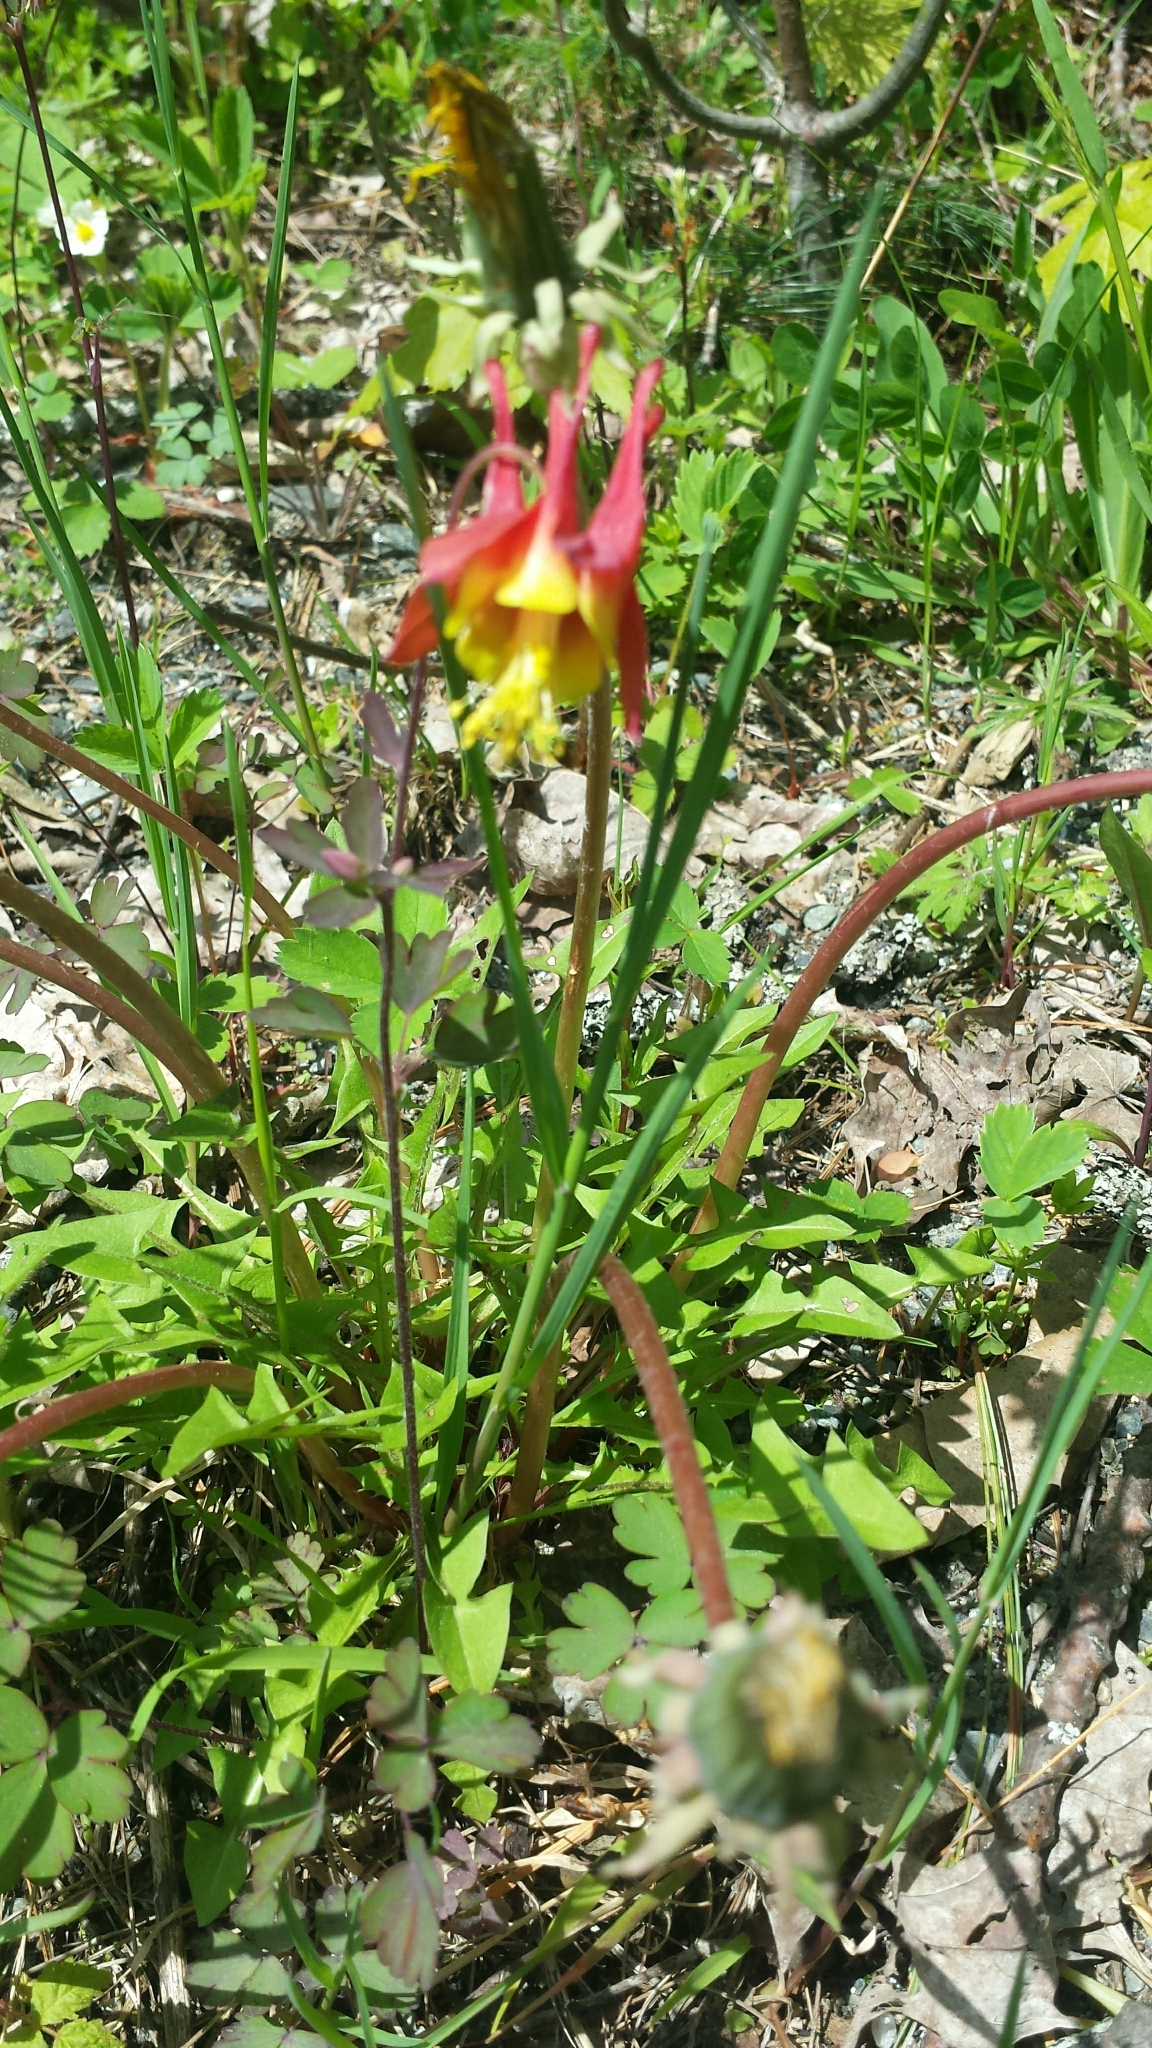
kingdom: Plantae
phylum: Tracheophyta
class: Magnoliopsida
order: Ranunculales
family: Ranunculaceae
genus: Aquilegia
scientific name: Aquilegia canadensis
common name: American columbine
